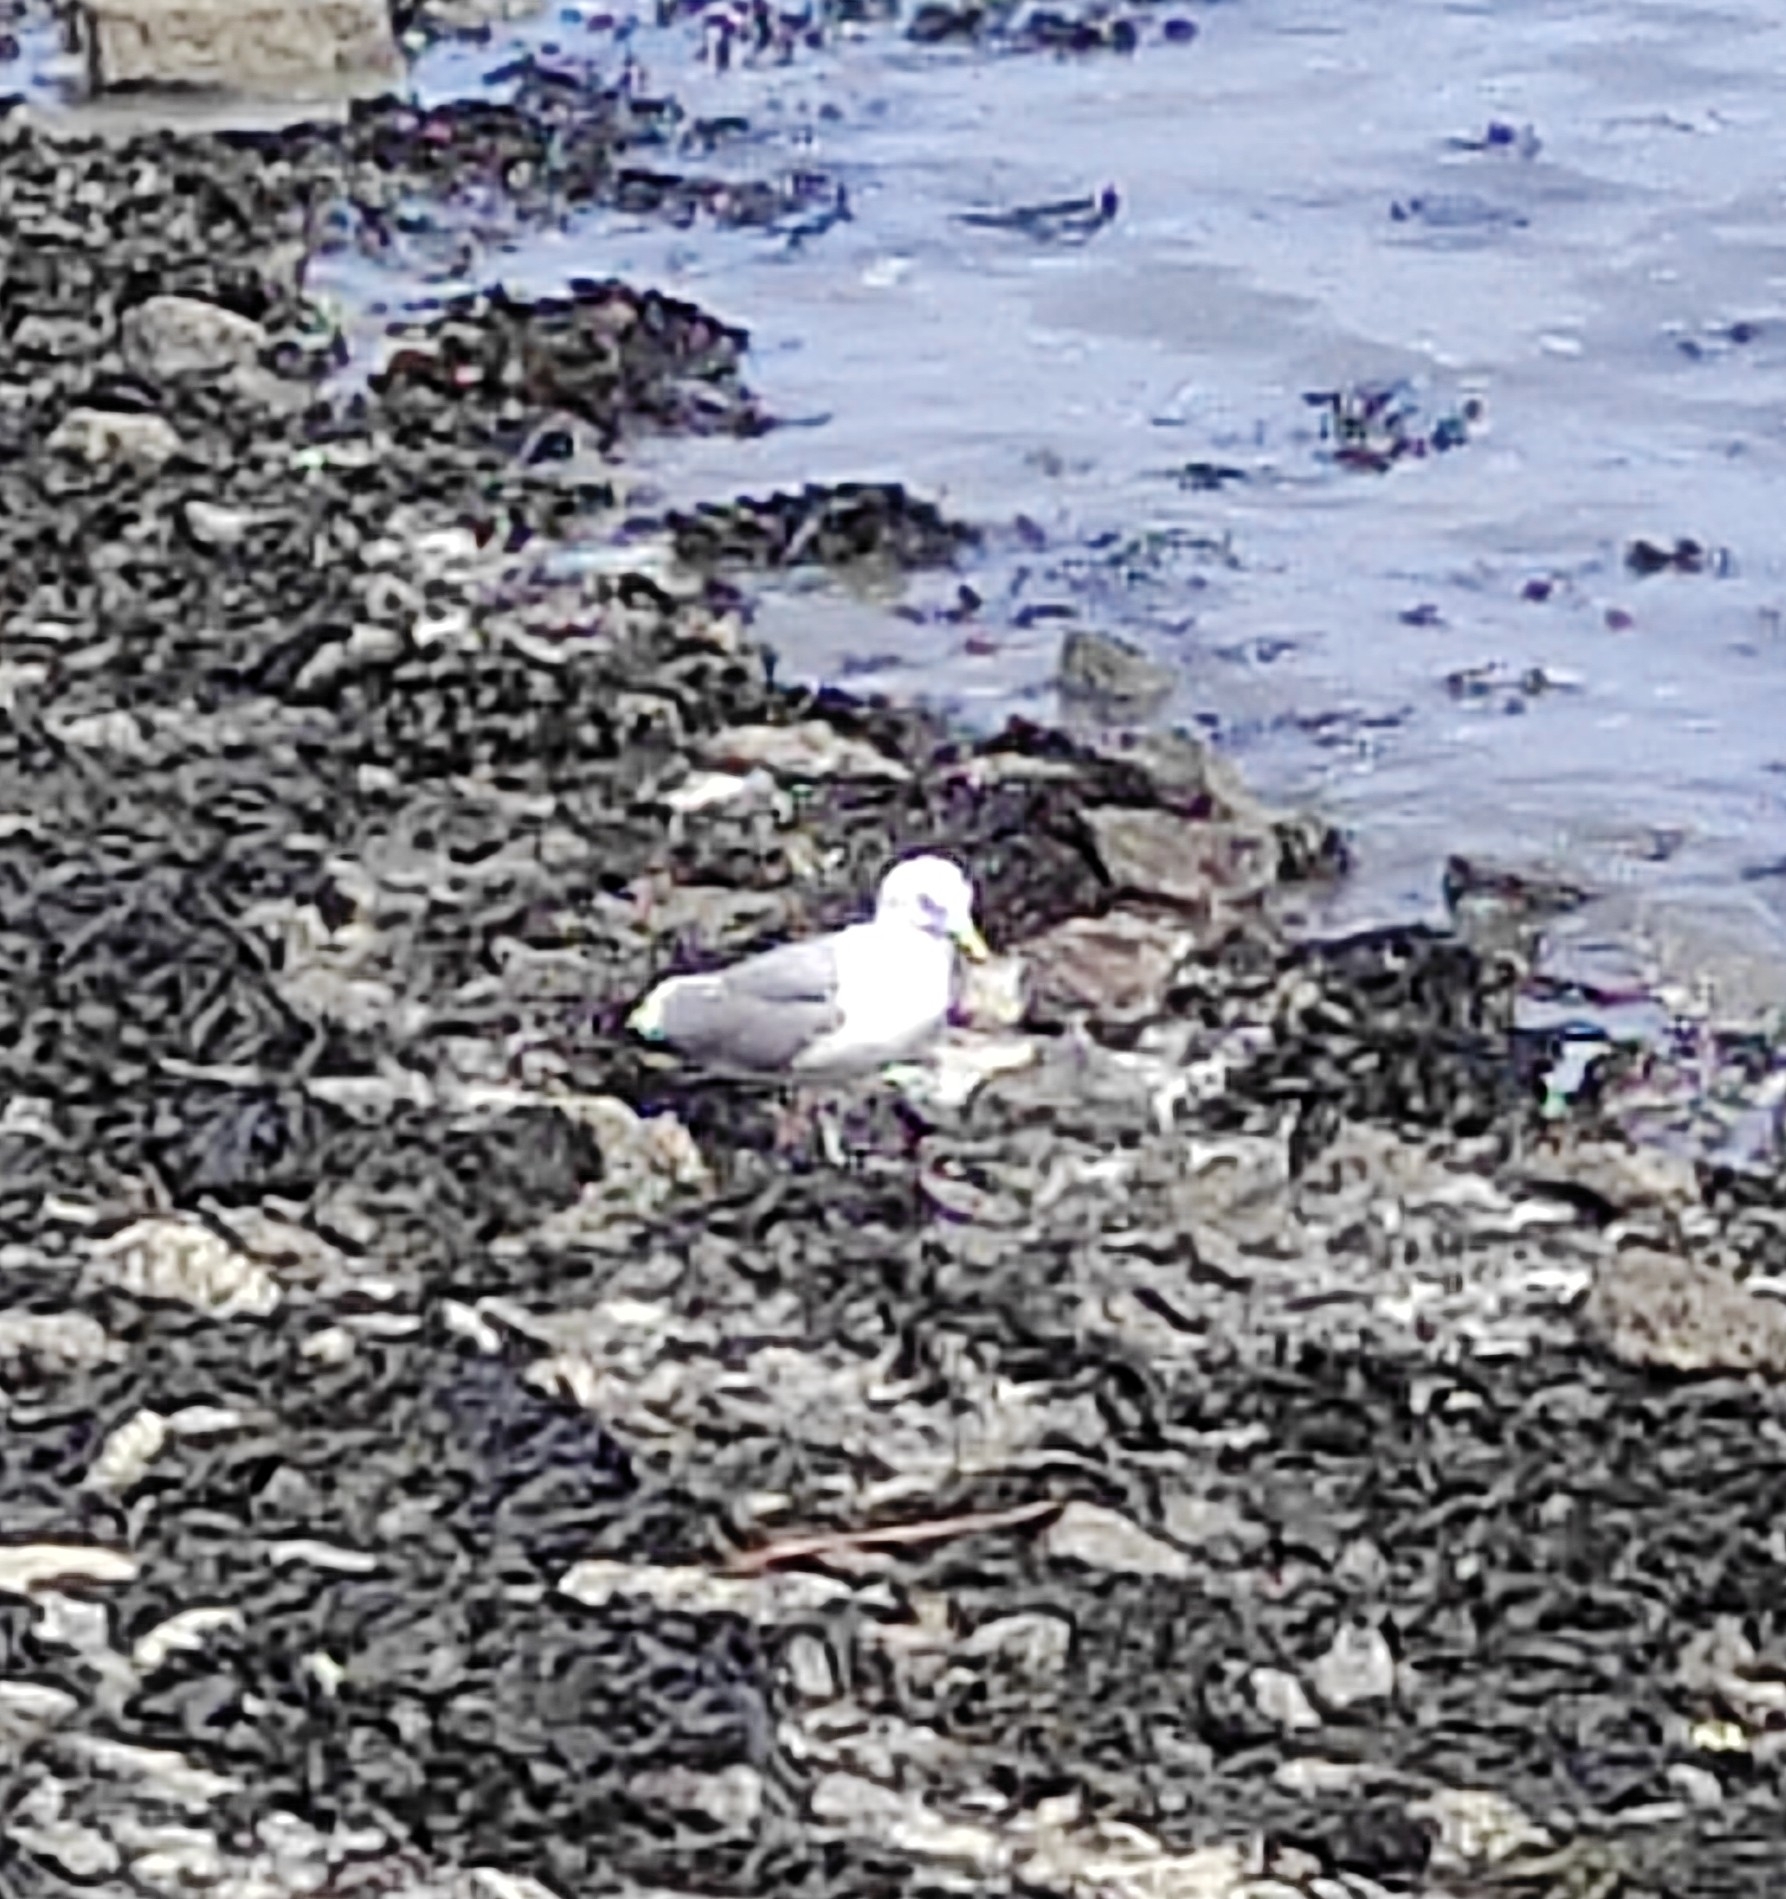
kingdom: Animalia
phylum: Chordata
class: Aves
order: Charadriiformes
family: Laridae
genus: Larus
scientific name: Larus argentatus
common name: Herring gull
